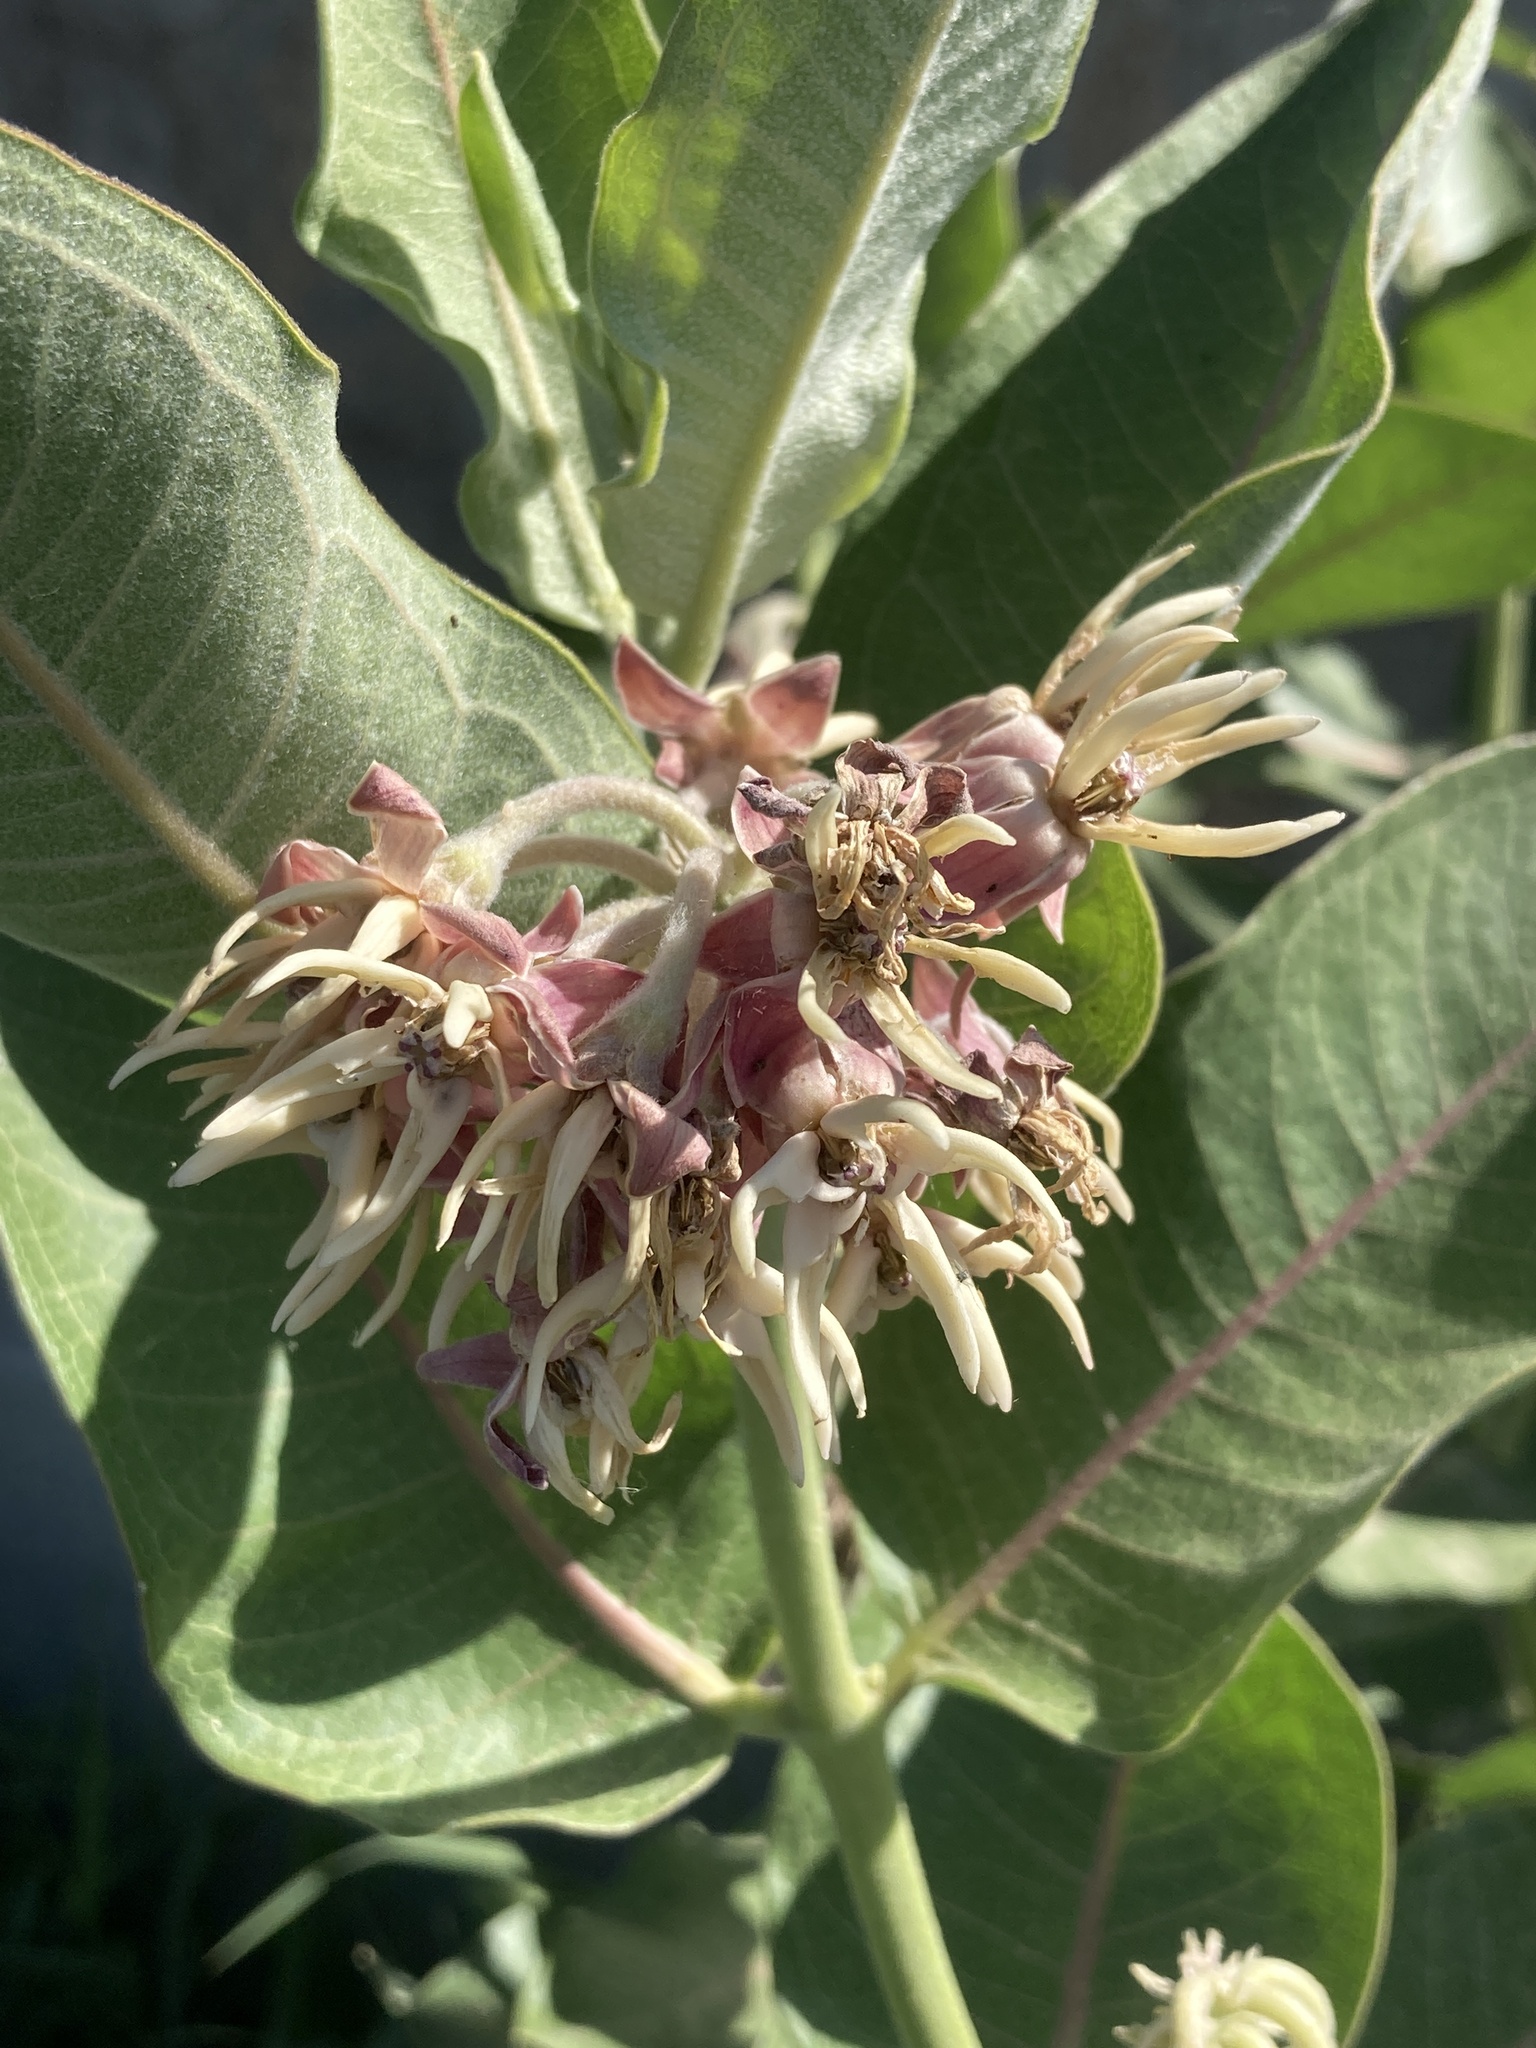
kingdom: Plantae
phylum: Tracheophyta
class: Magnoliopsida
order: Gentianales
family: Apocynaceae
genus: Asclepias
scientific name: Asclepias speciosa
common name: Showy milkweed
